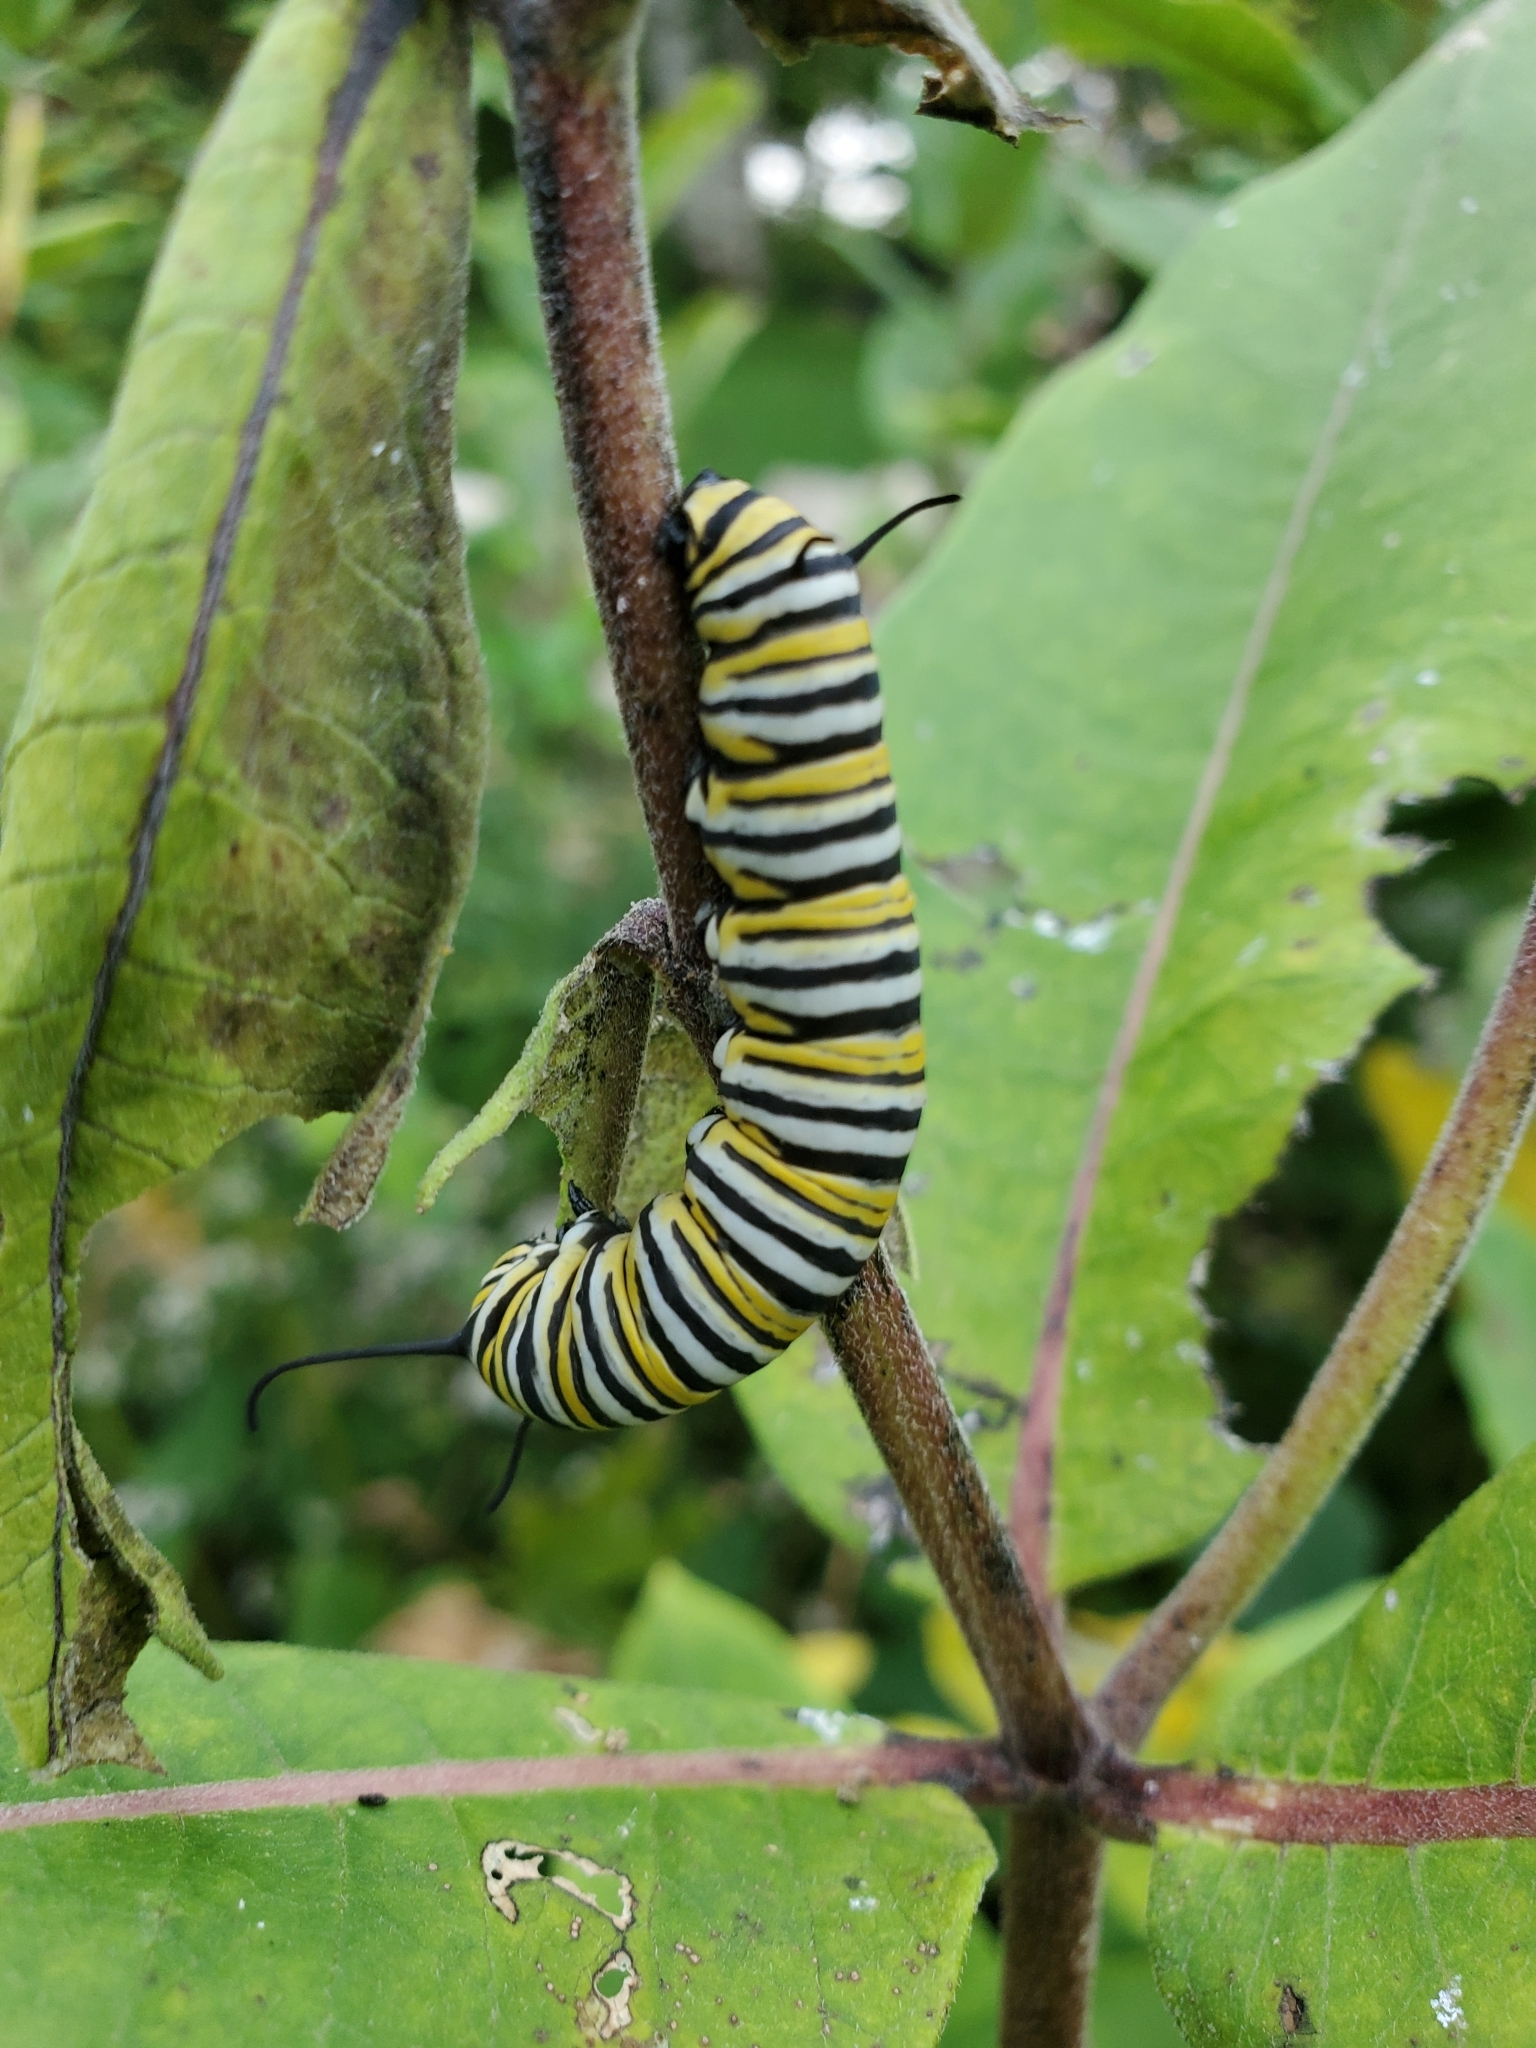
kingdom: Animalia
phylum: Arthropoda
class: Insecta
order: Lepidoptera
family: Nymphalidae
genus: Danaus
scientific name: Danaus plexippus
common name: Monarch
